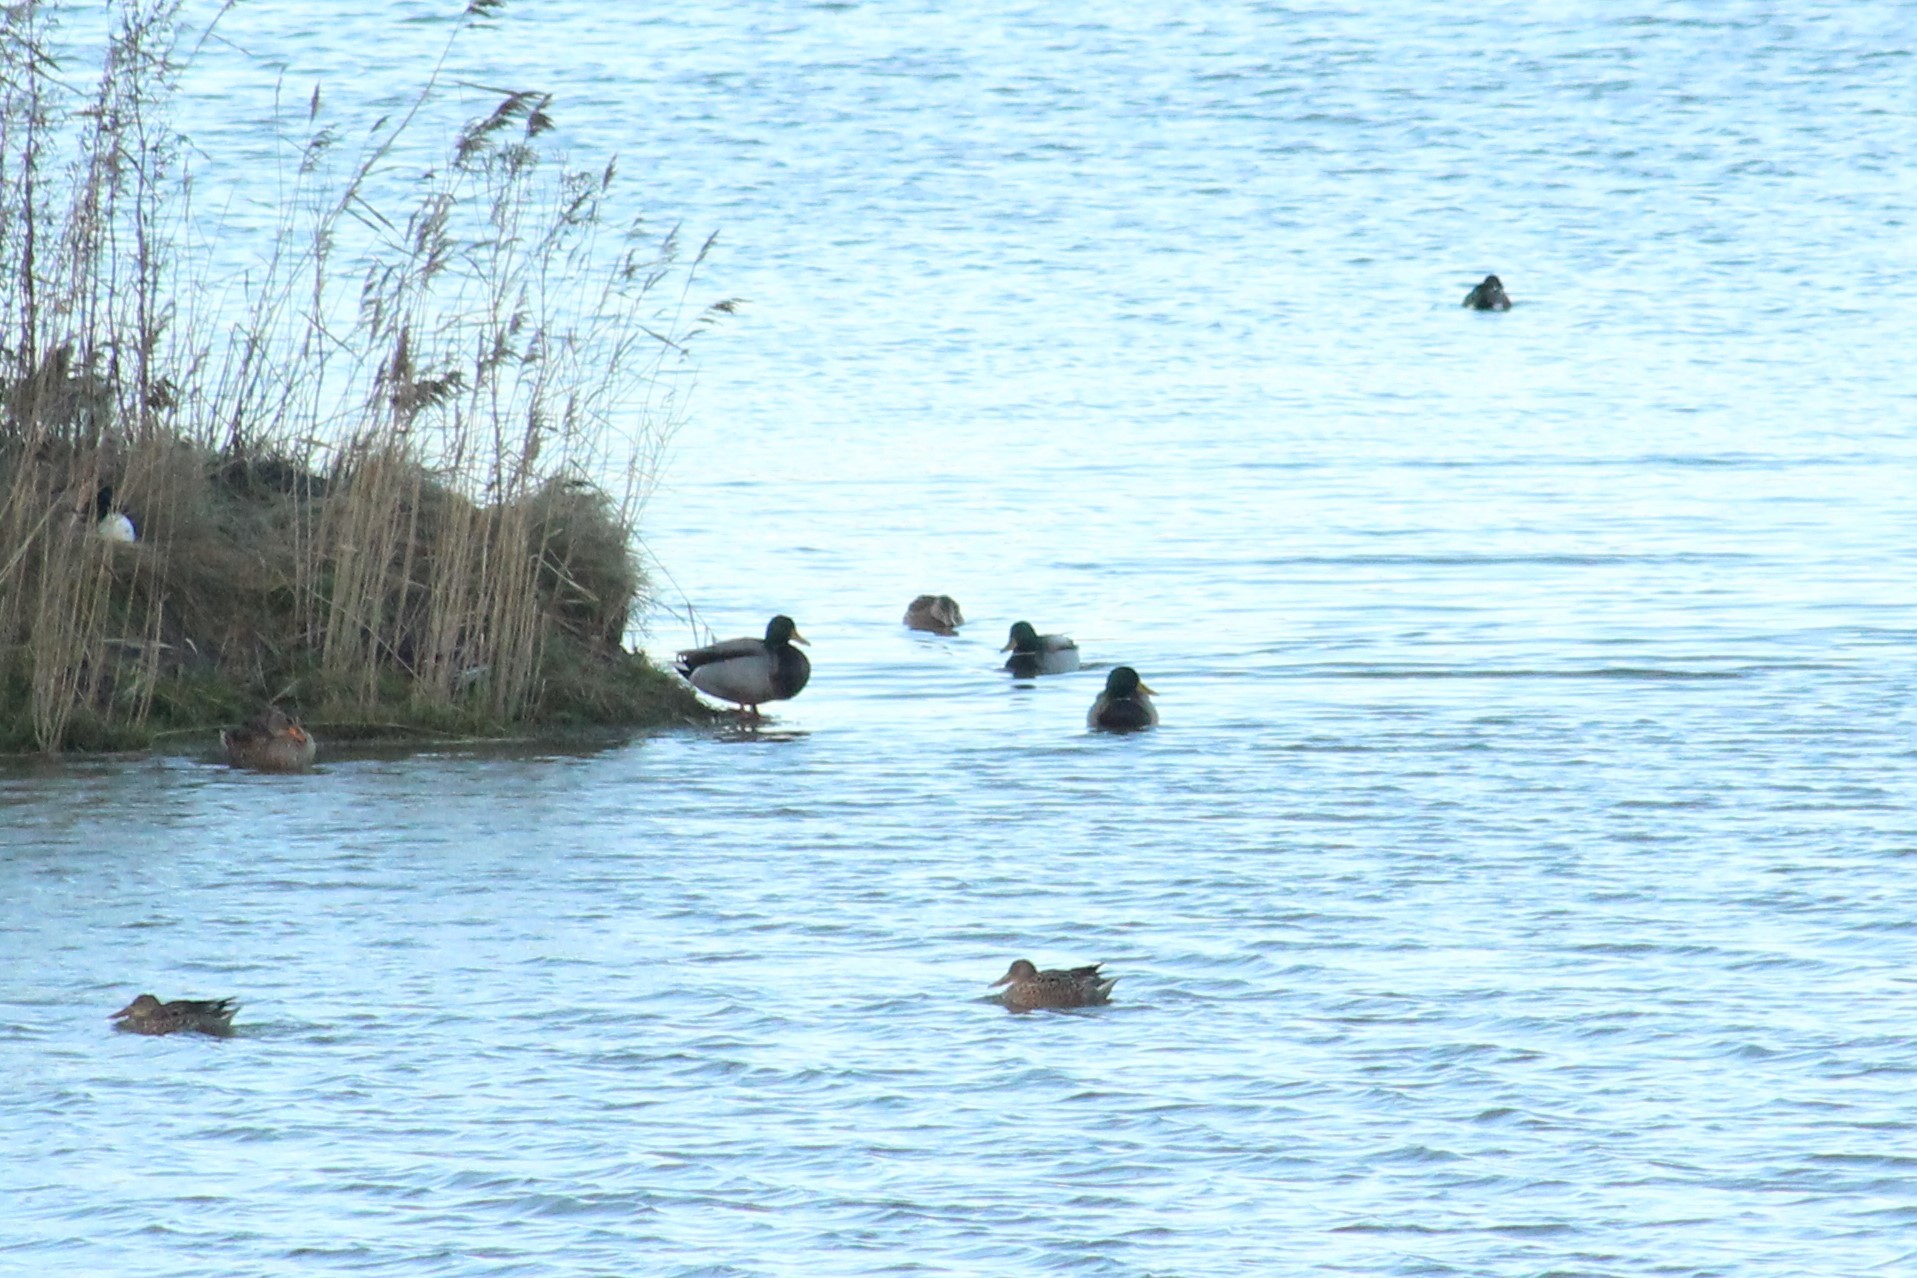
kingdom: Animalia
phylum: Chordata
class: Aves
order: Anseriformes
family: Anatidae
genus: Anas
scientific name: Anas platyrhynchos
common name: Mallard
